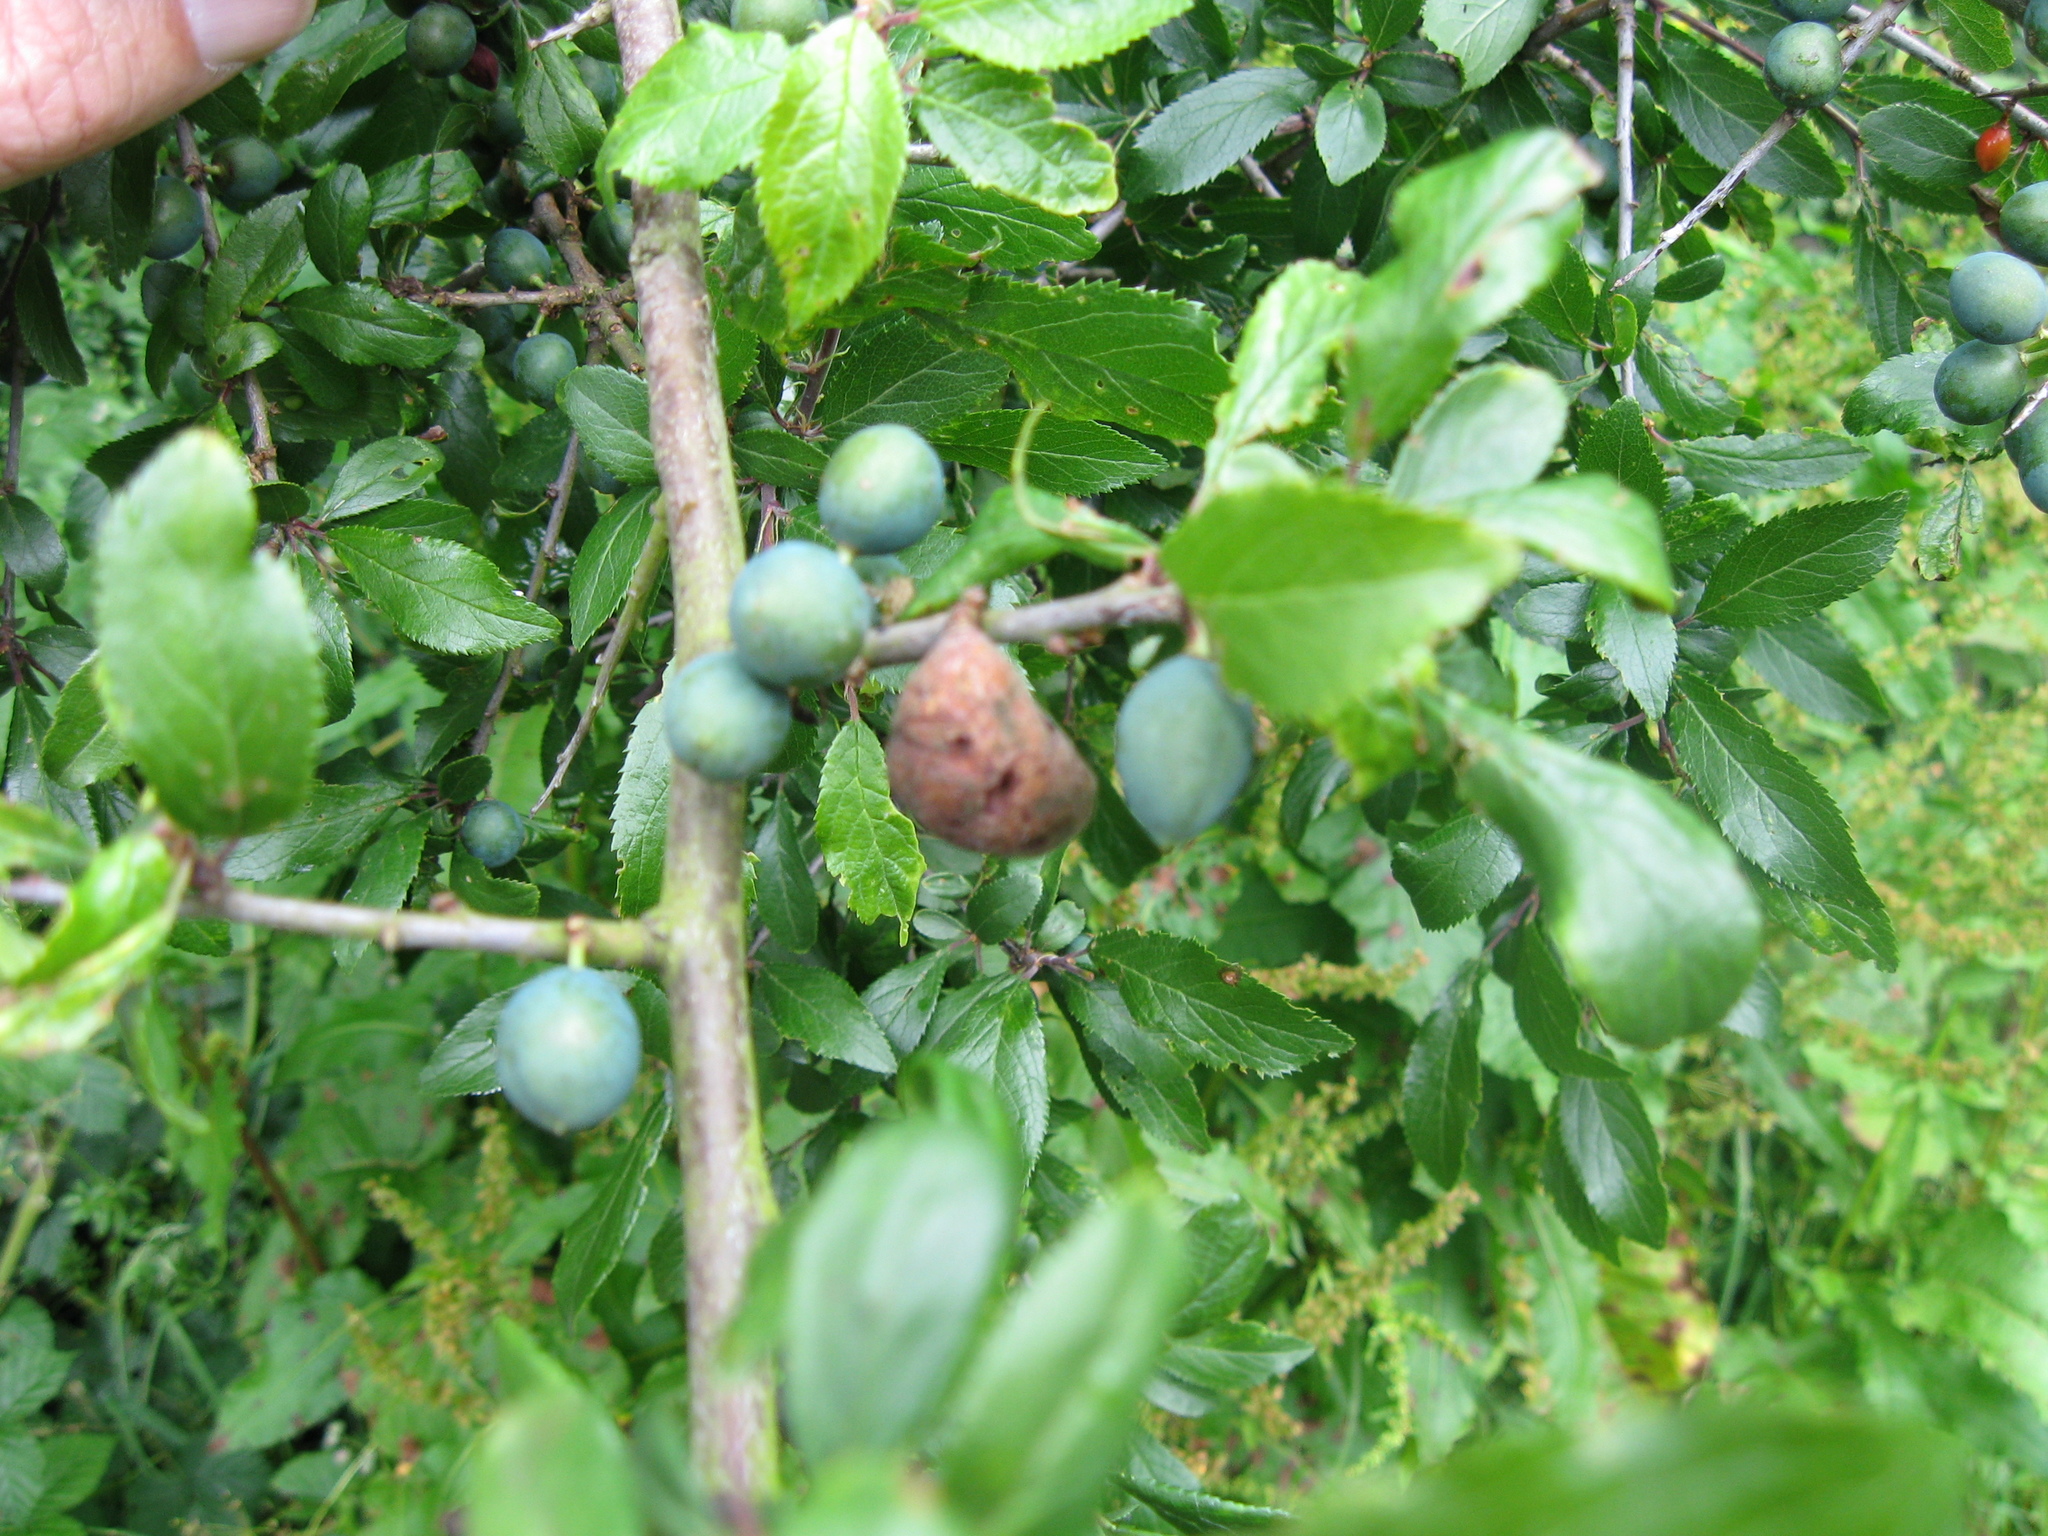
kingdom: Fungi
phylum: Ascomycota
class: Taphrinomycetes
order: Taphrinales
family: Taphrinaceae
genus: Taphrina
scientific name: Taphrina pruni
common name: Pocket plum
